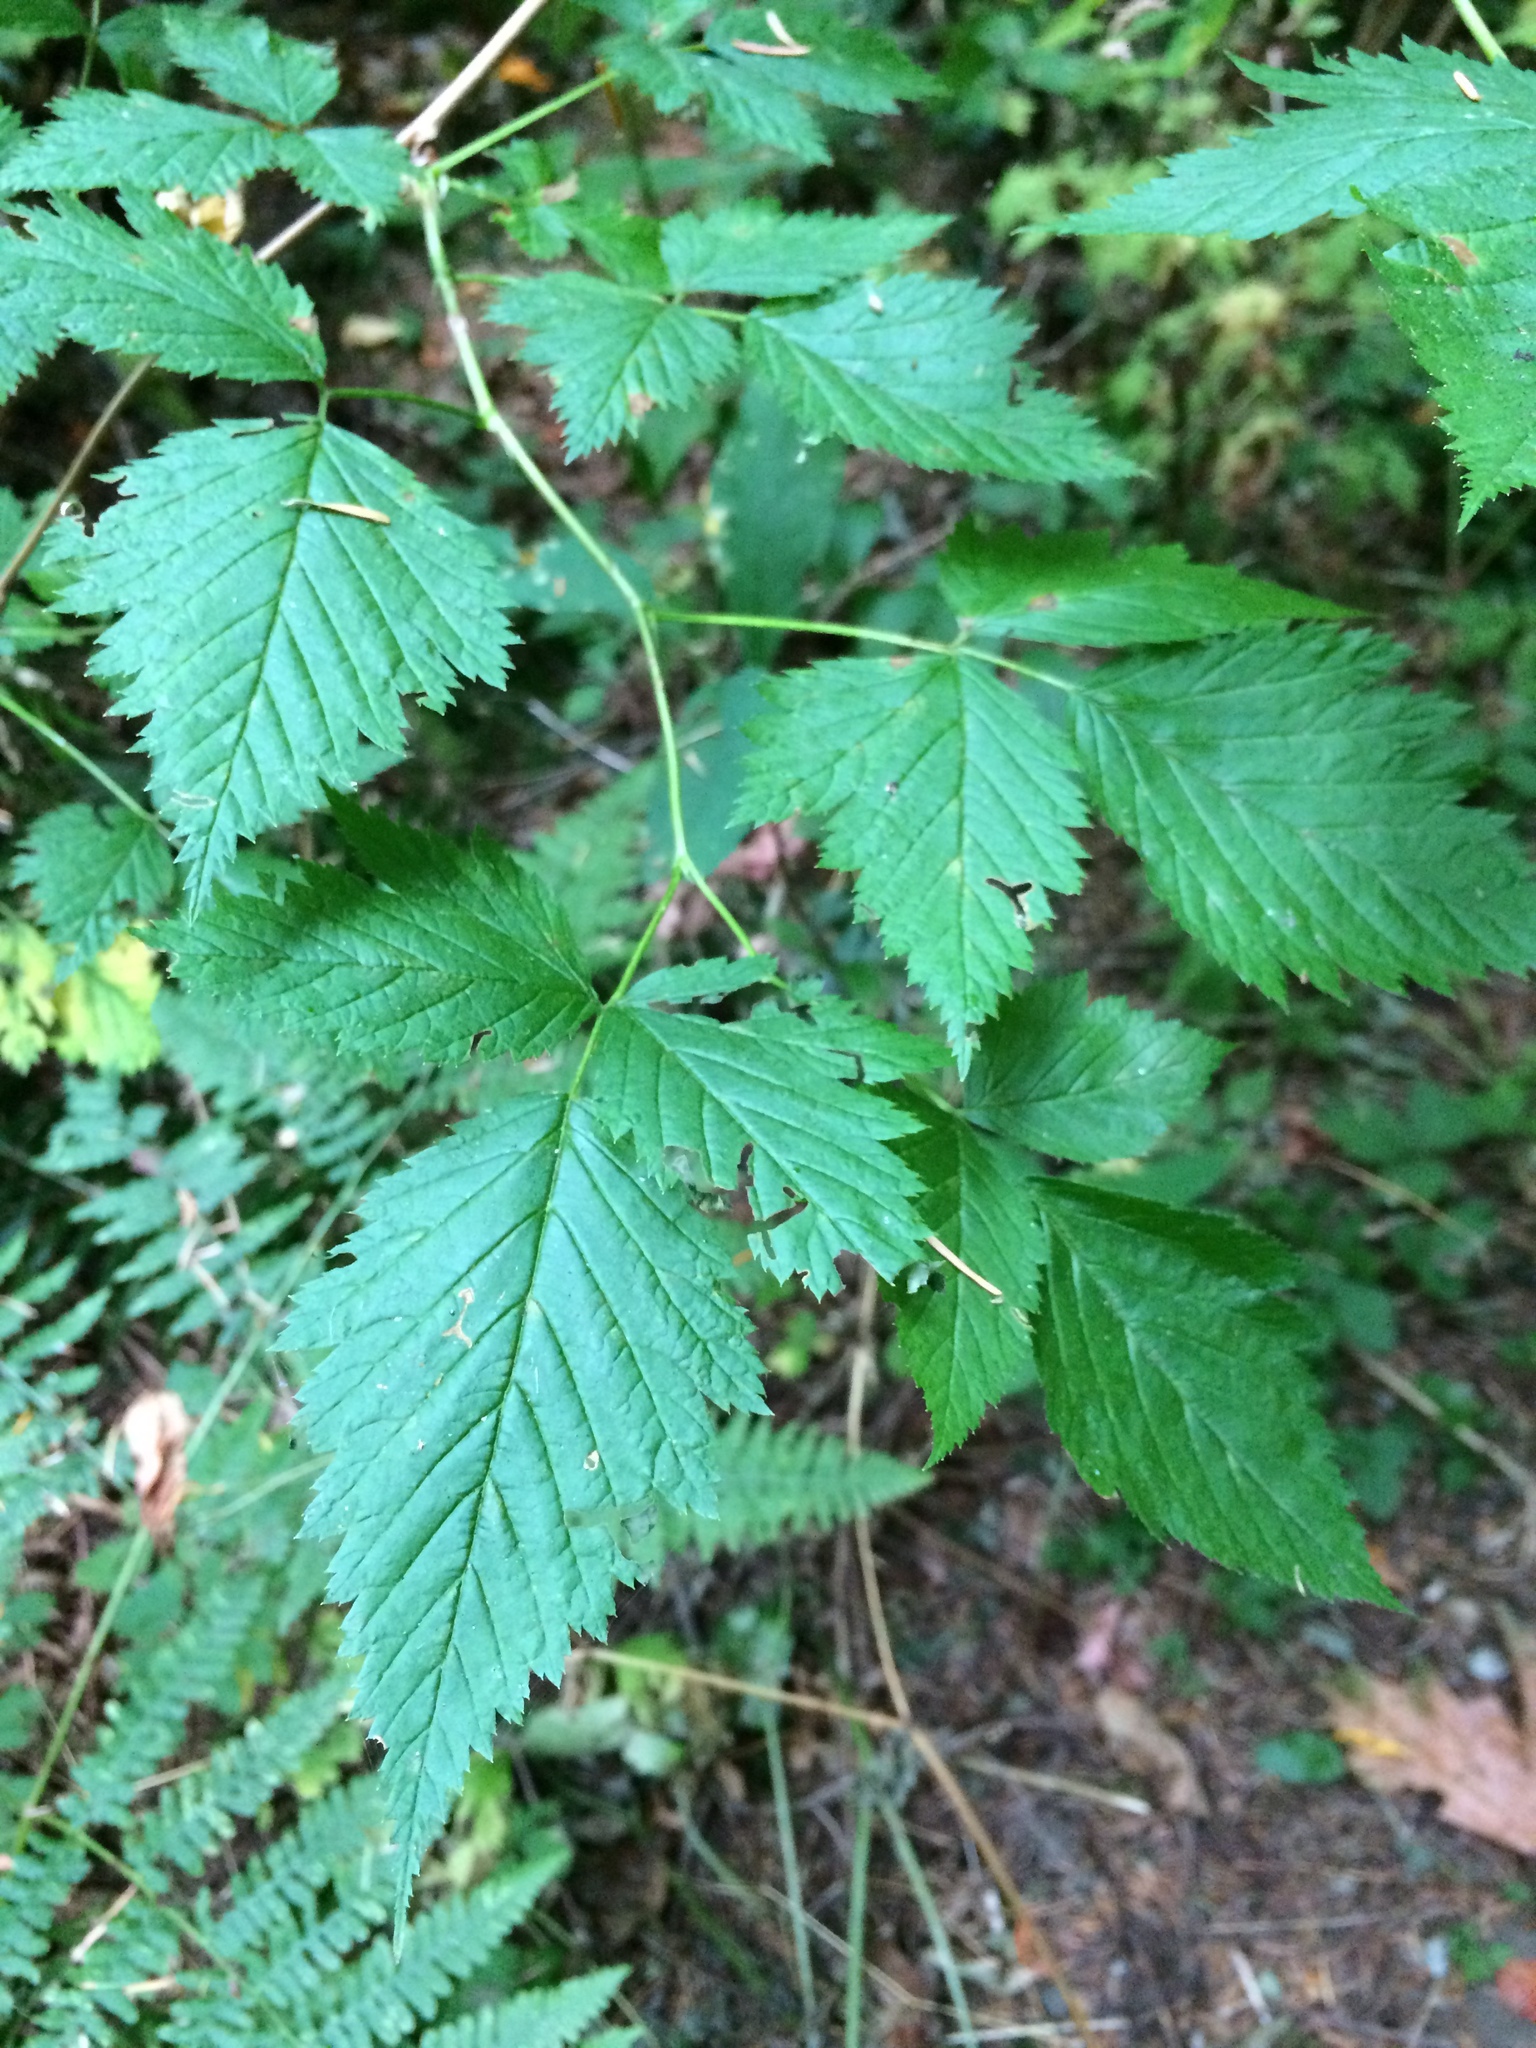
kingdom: Plantae
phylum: Tracheophyta
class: Magnoliopsida
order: Rosales
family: Rosaceae
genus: Rubus
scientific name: Rubus spectabilis
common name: Salmonberry
